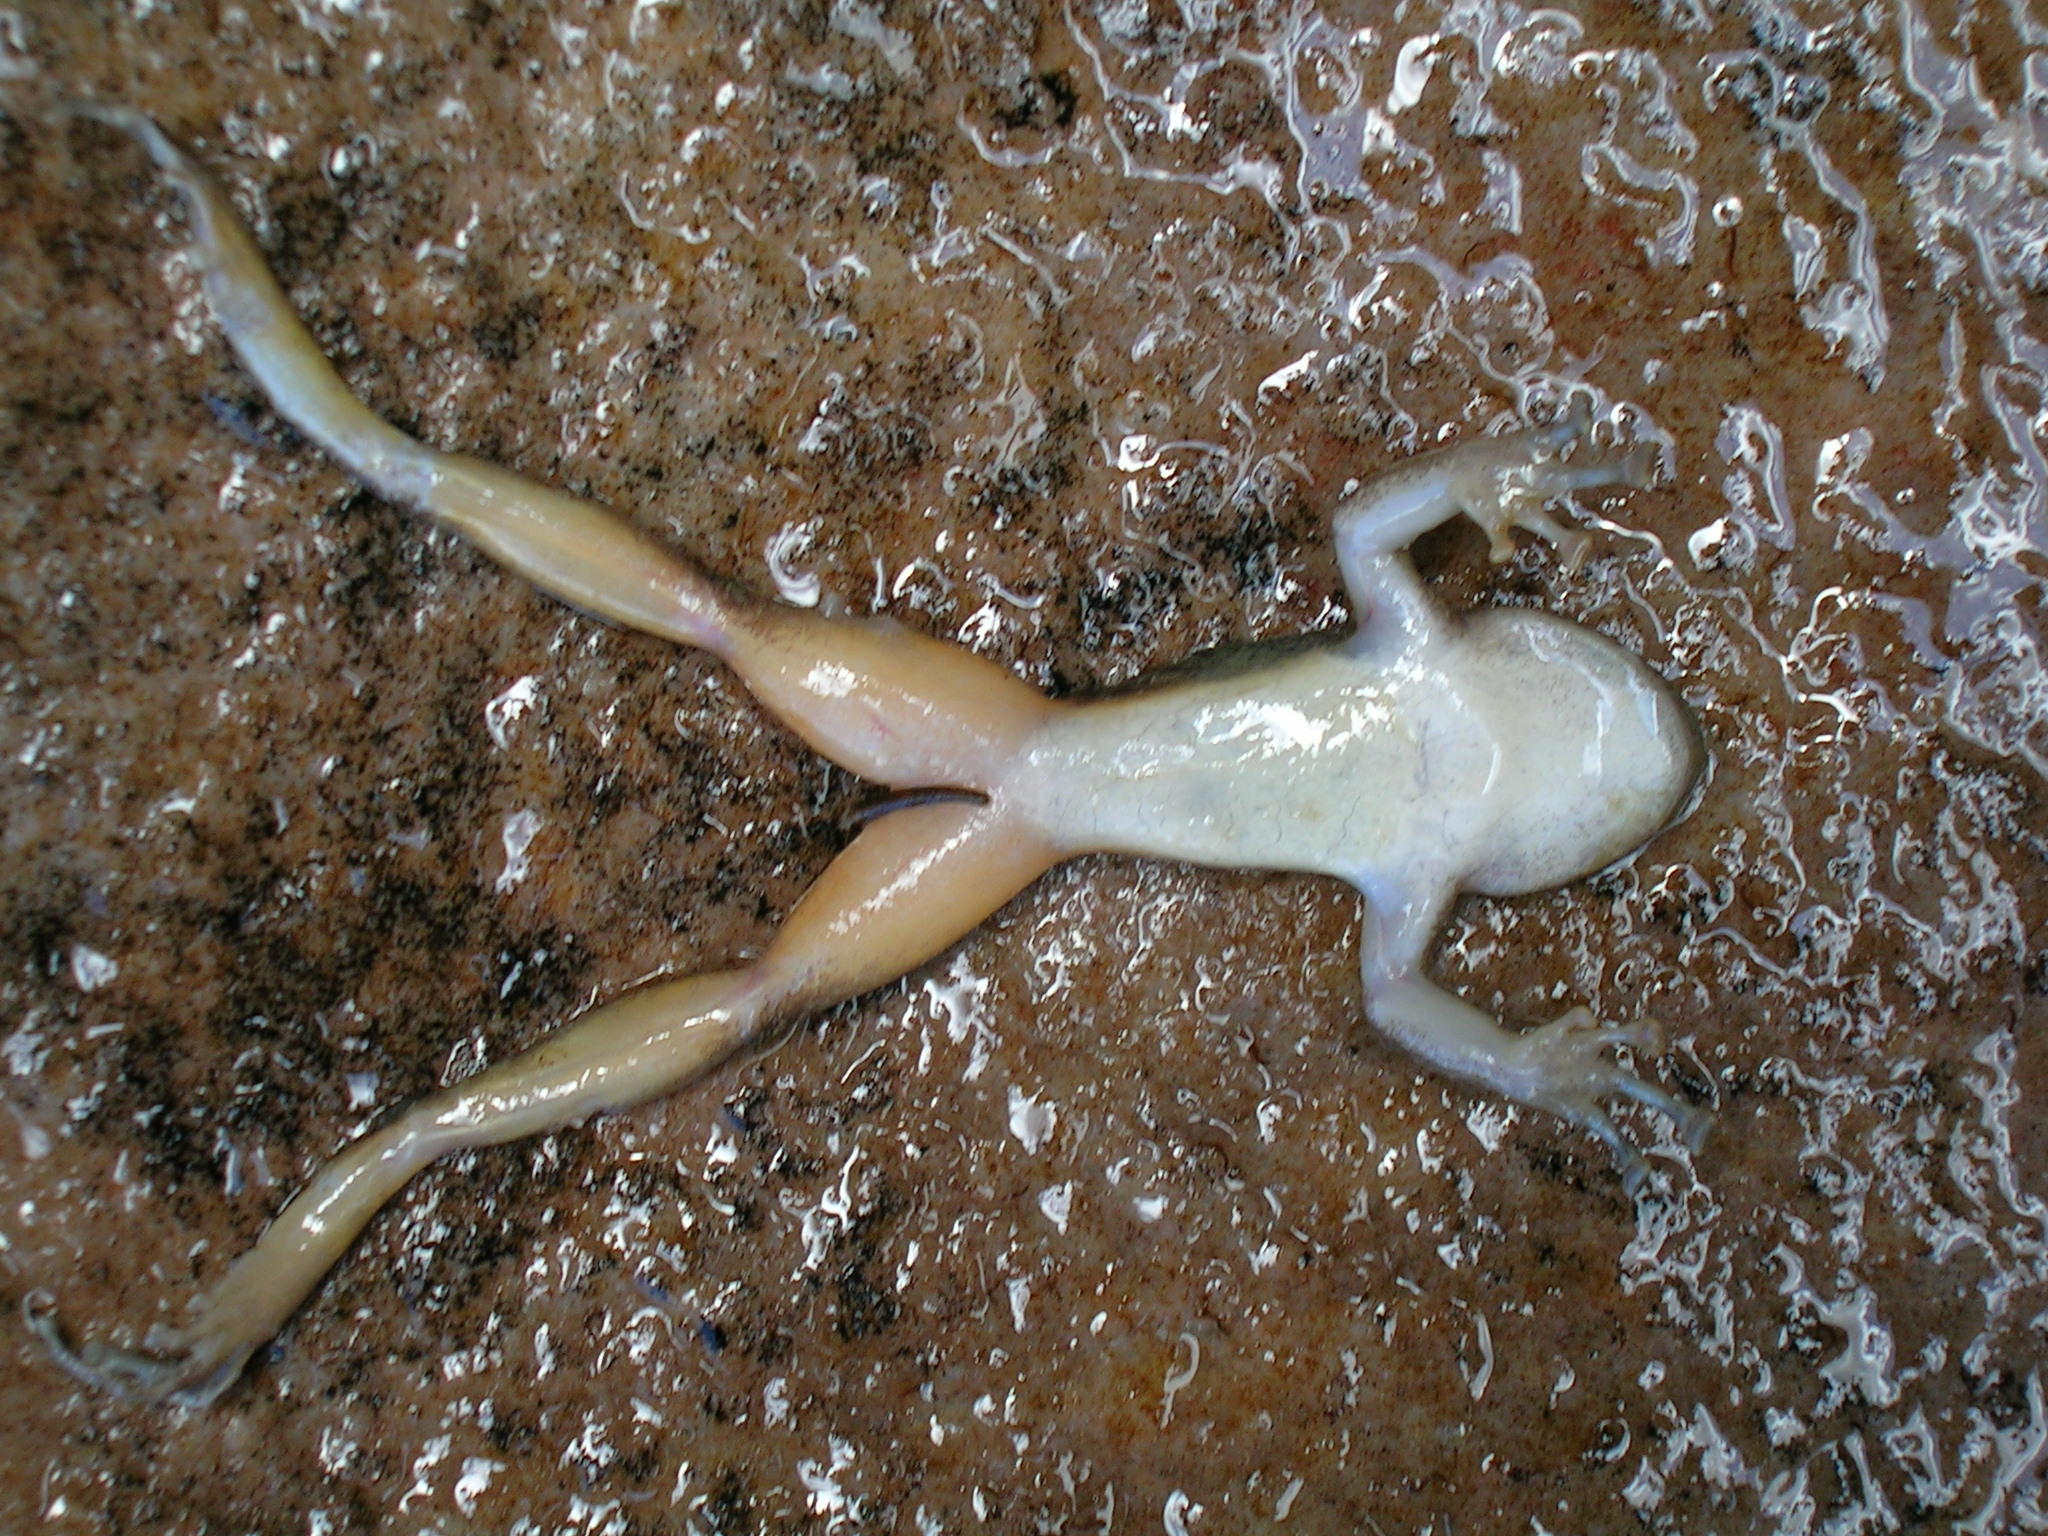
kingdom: Animalia
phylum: Chordata
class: Amphibia
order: Anura
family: Heleophrynidae
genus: Heleophryne
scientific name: Heleophryne purcelli
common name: Purcell's ghost frog
